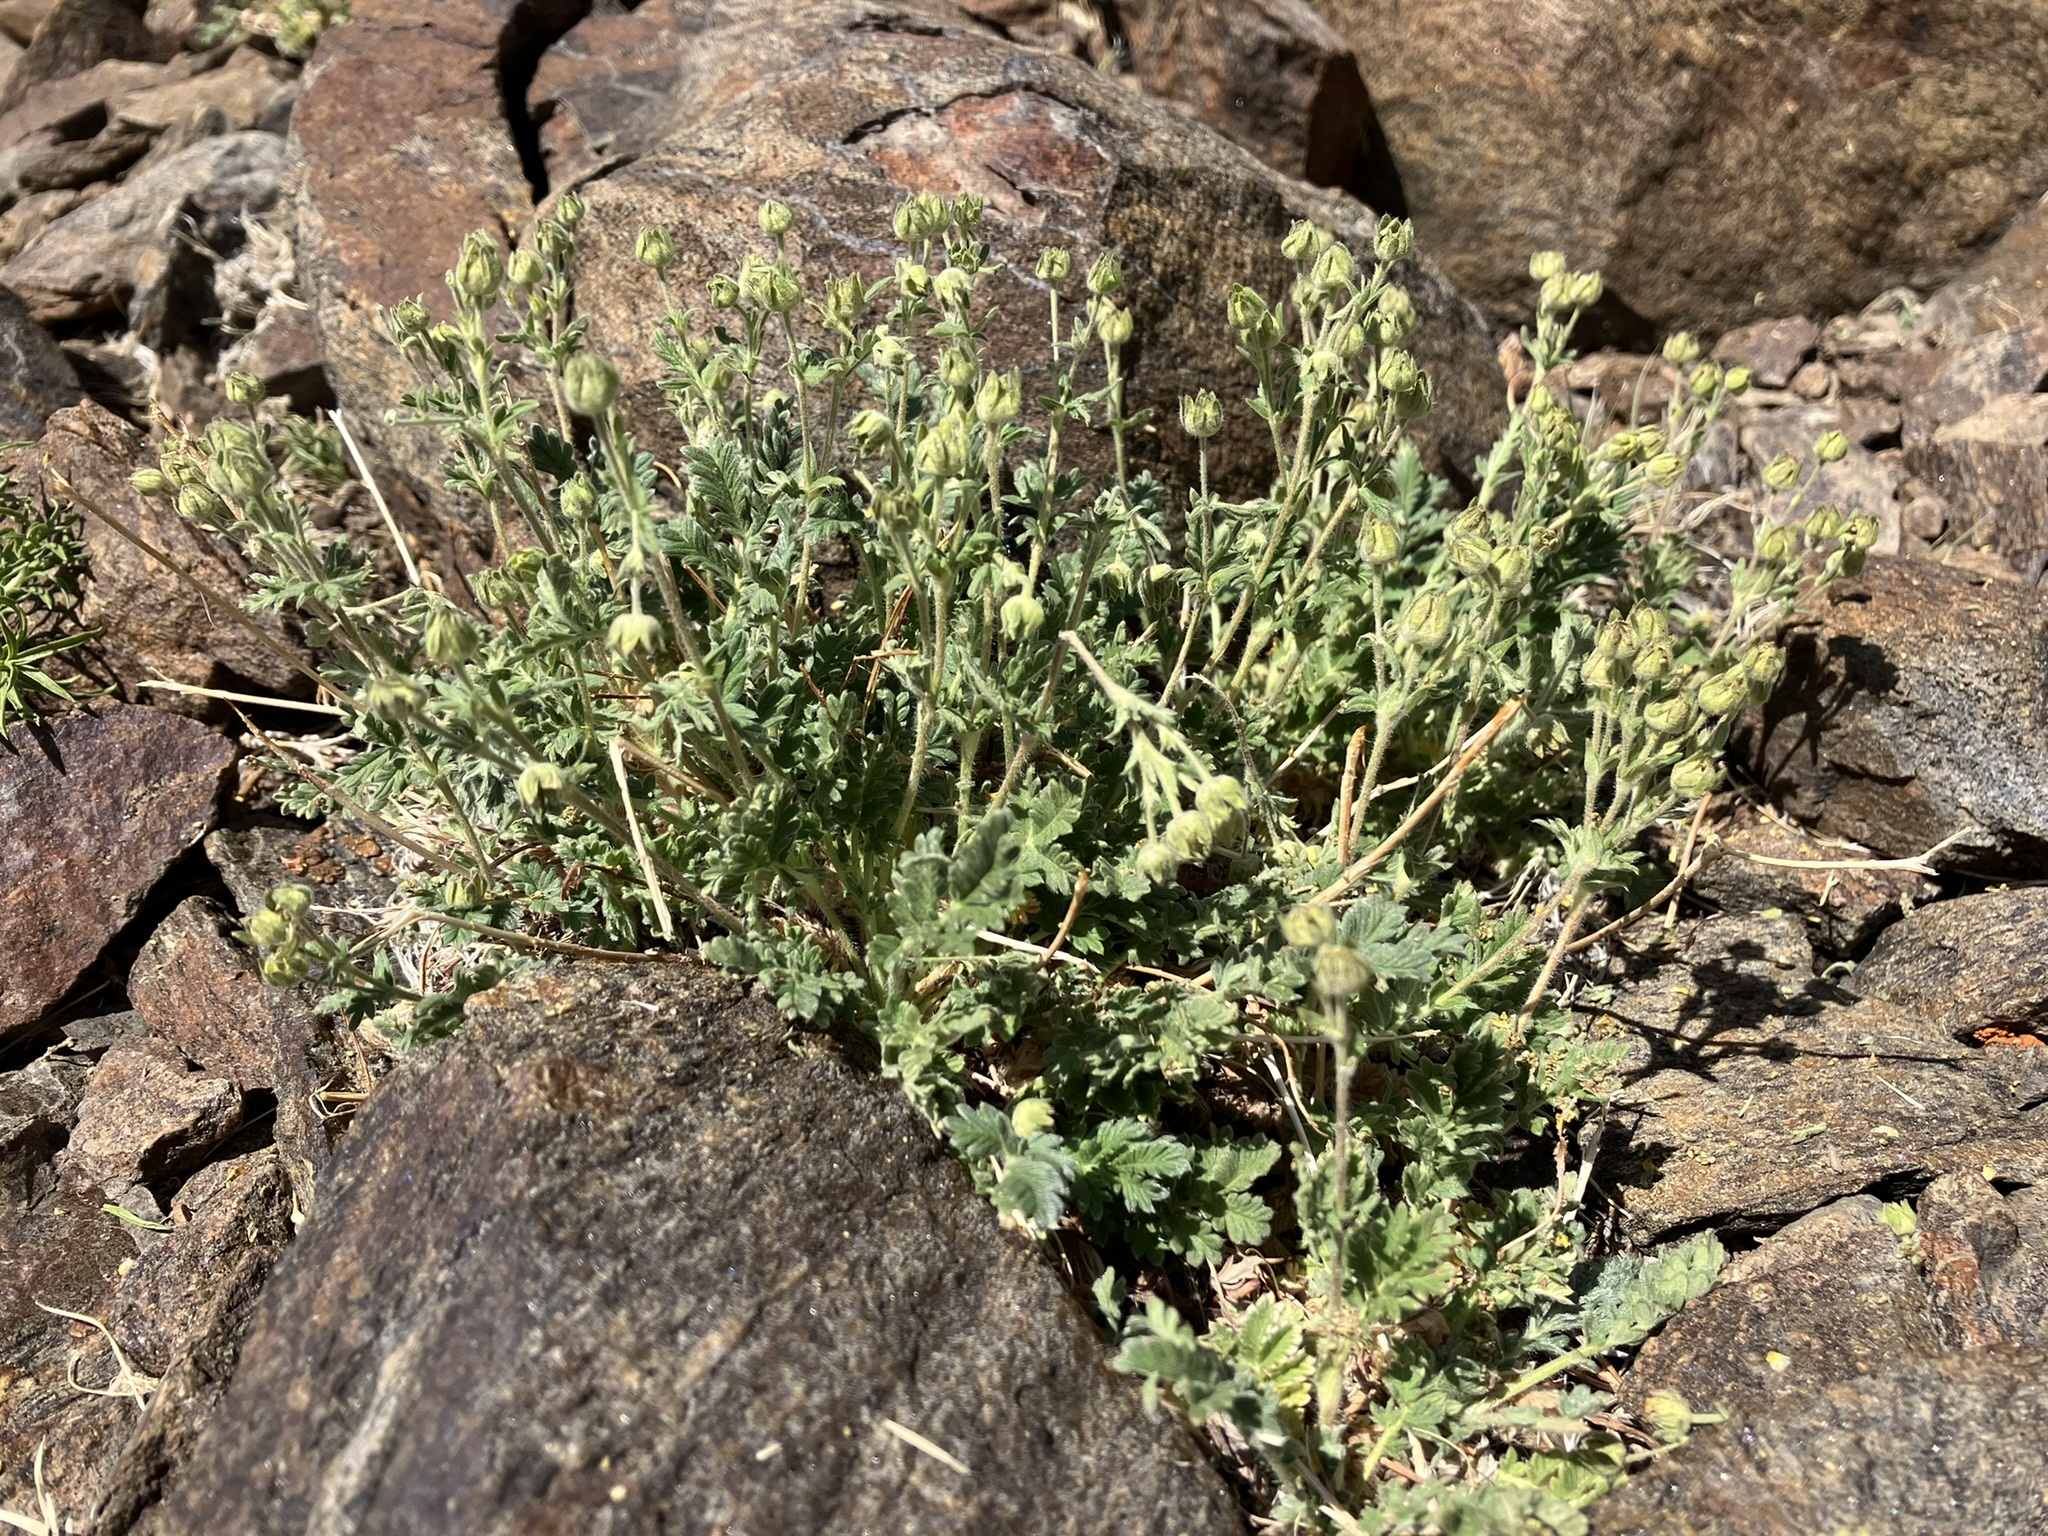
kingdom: Plantae
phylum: Tracheophyta
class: Magnoliopsida
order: Rosales
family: Rosaceae
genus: Potentilla
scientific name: Potentilla pensylvanica
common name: Pennsylvania cinquefoil
